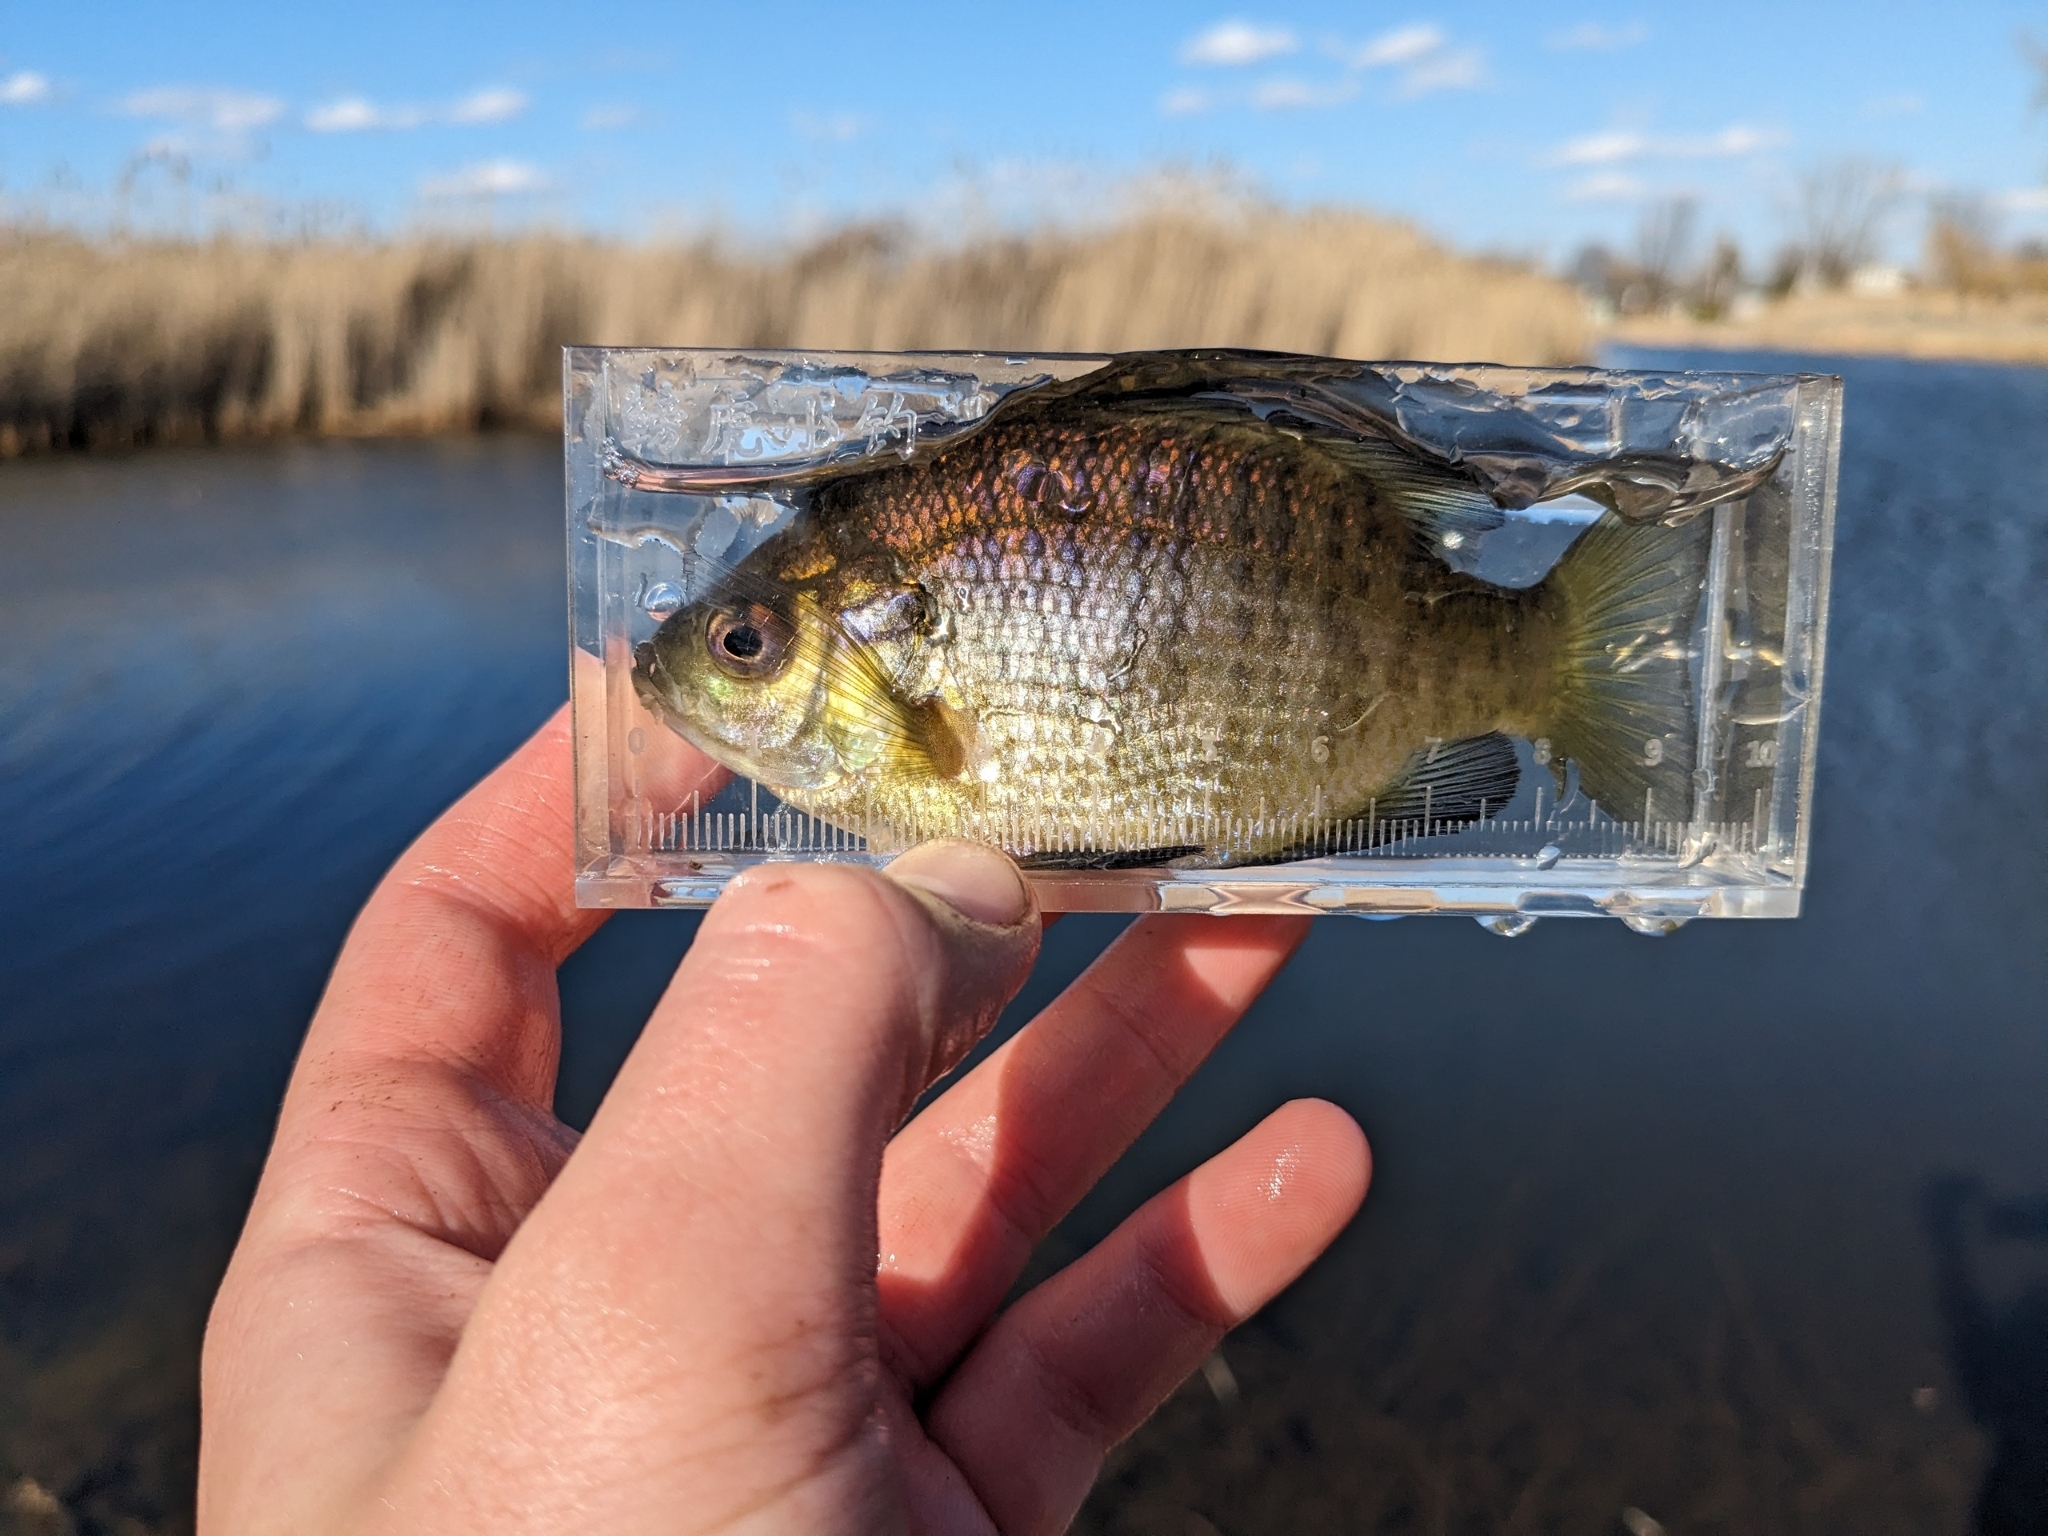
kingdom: Animalia
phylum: Chordata
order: Perciformes
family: Centrarchidae
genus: Lepomis
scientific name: Lepomis macrochirus
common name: Bluegill
